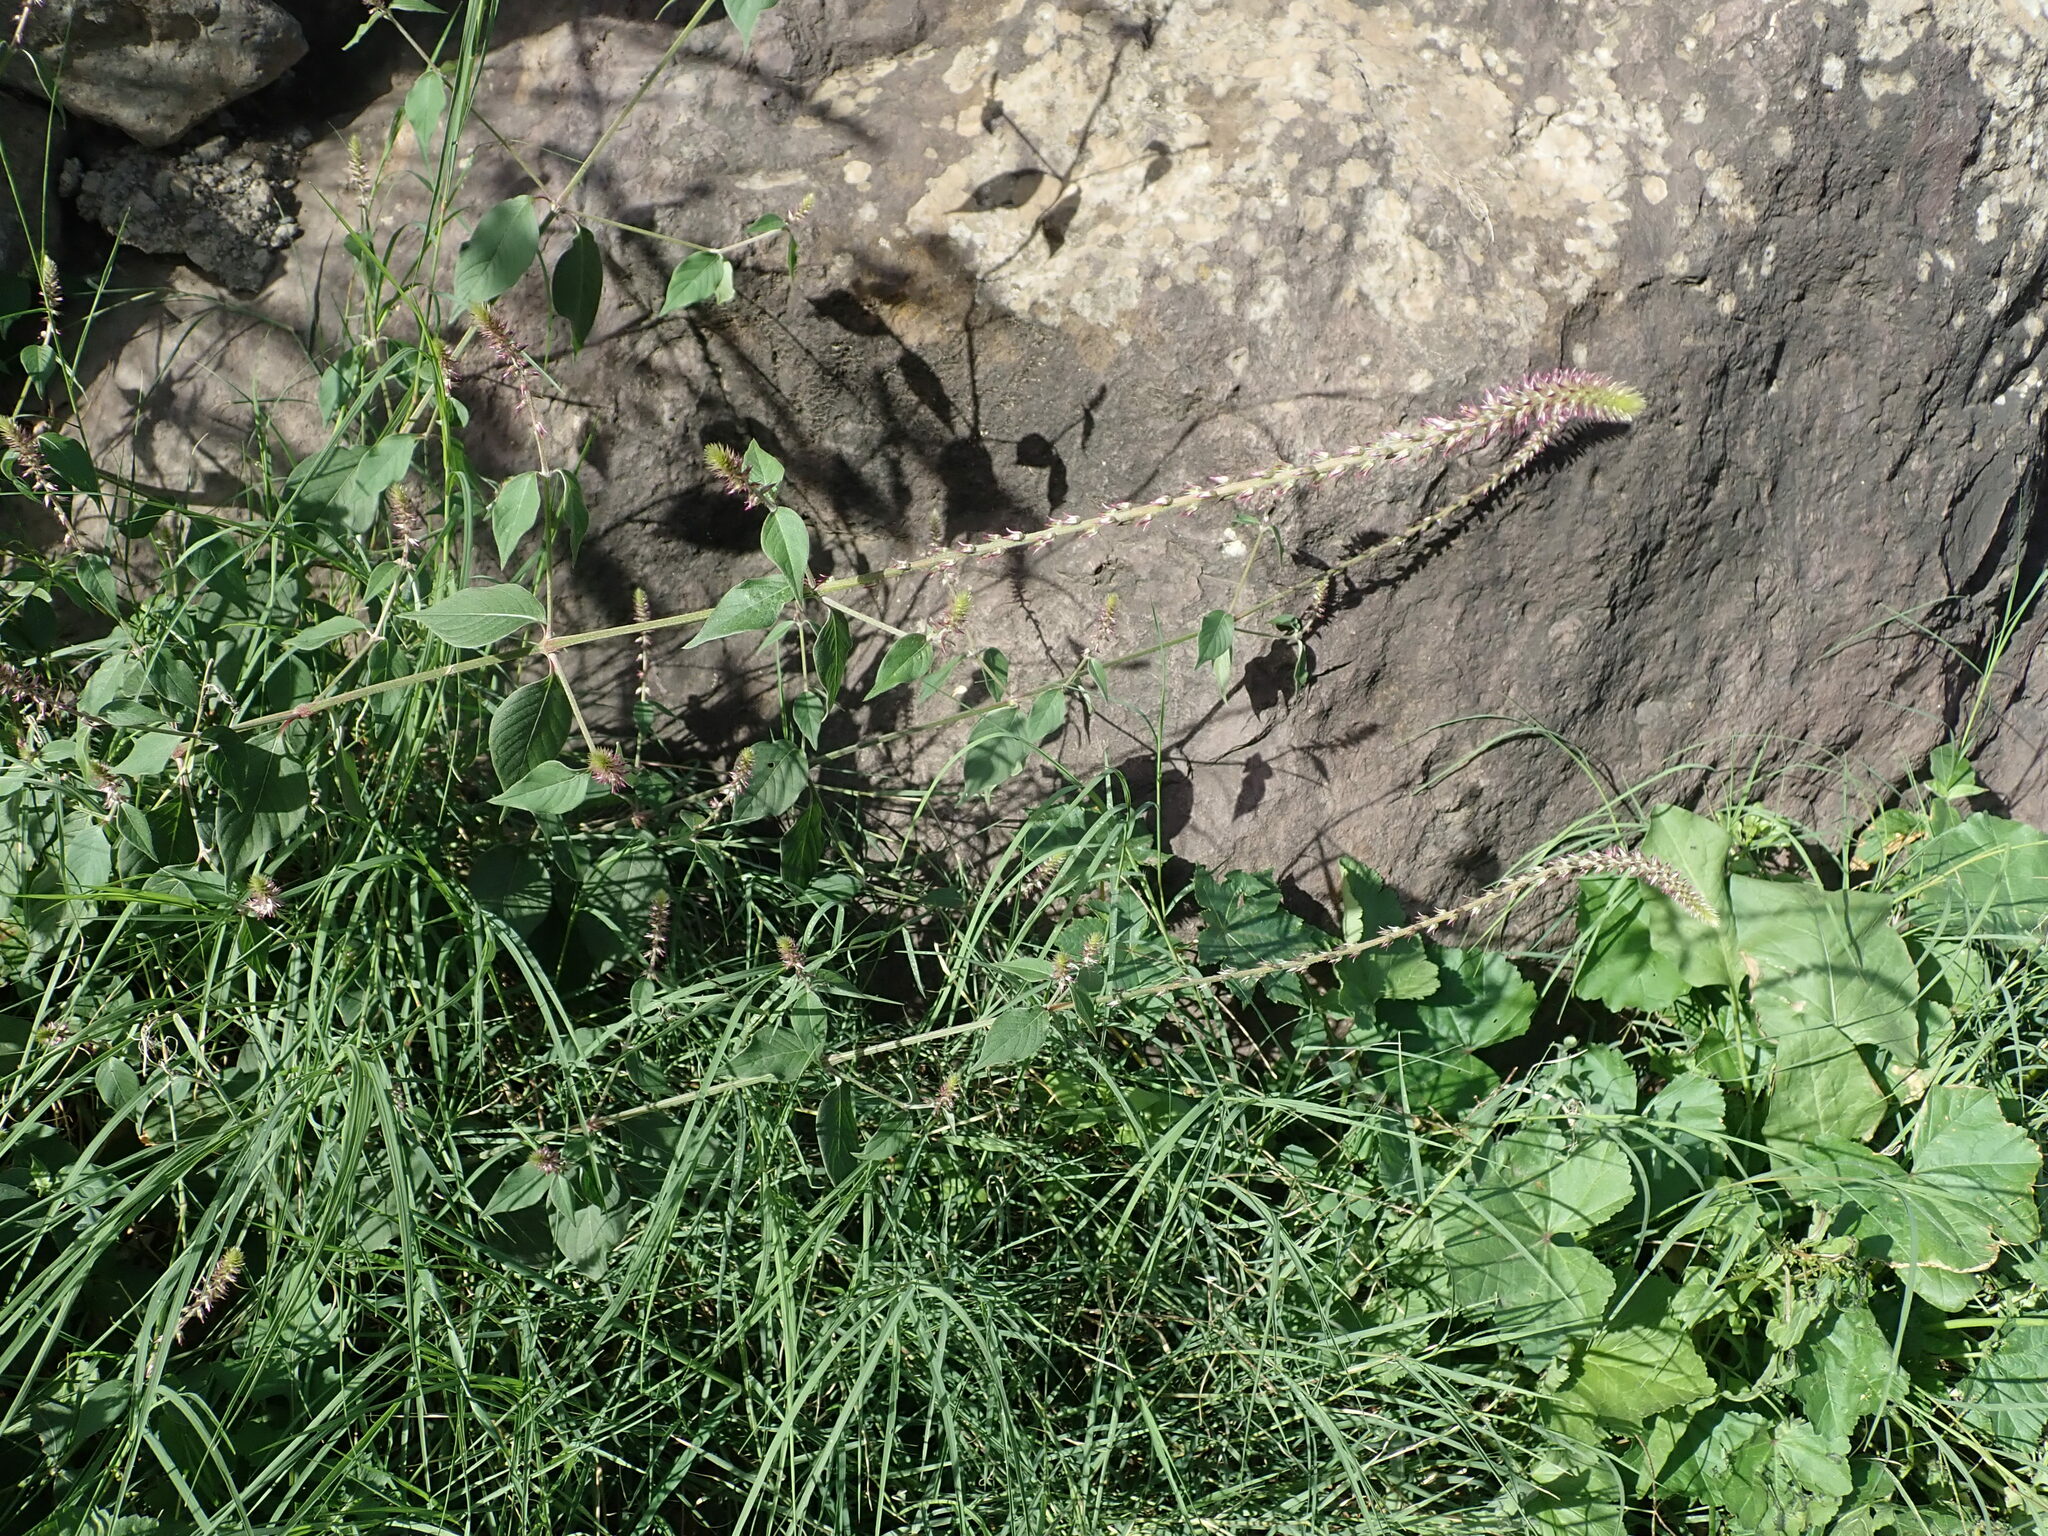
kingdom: Plantae
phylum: Tracheophyta
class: Magnoliopsida
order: Caryophyllales
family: Amaranthaceae
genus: Achyranthes
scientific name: Achyranthes aspera
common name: Devil's horsewhip
